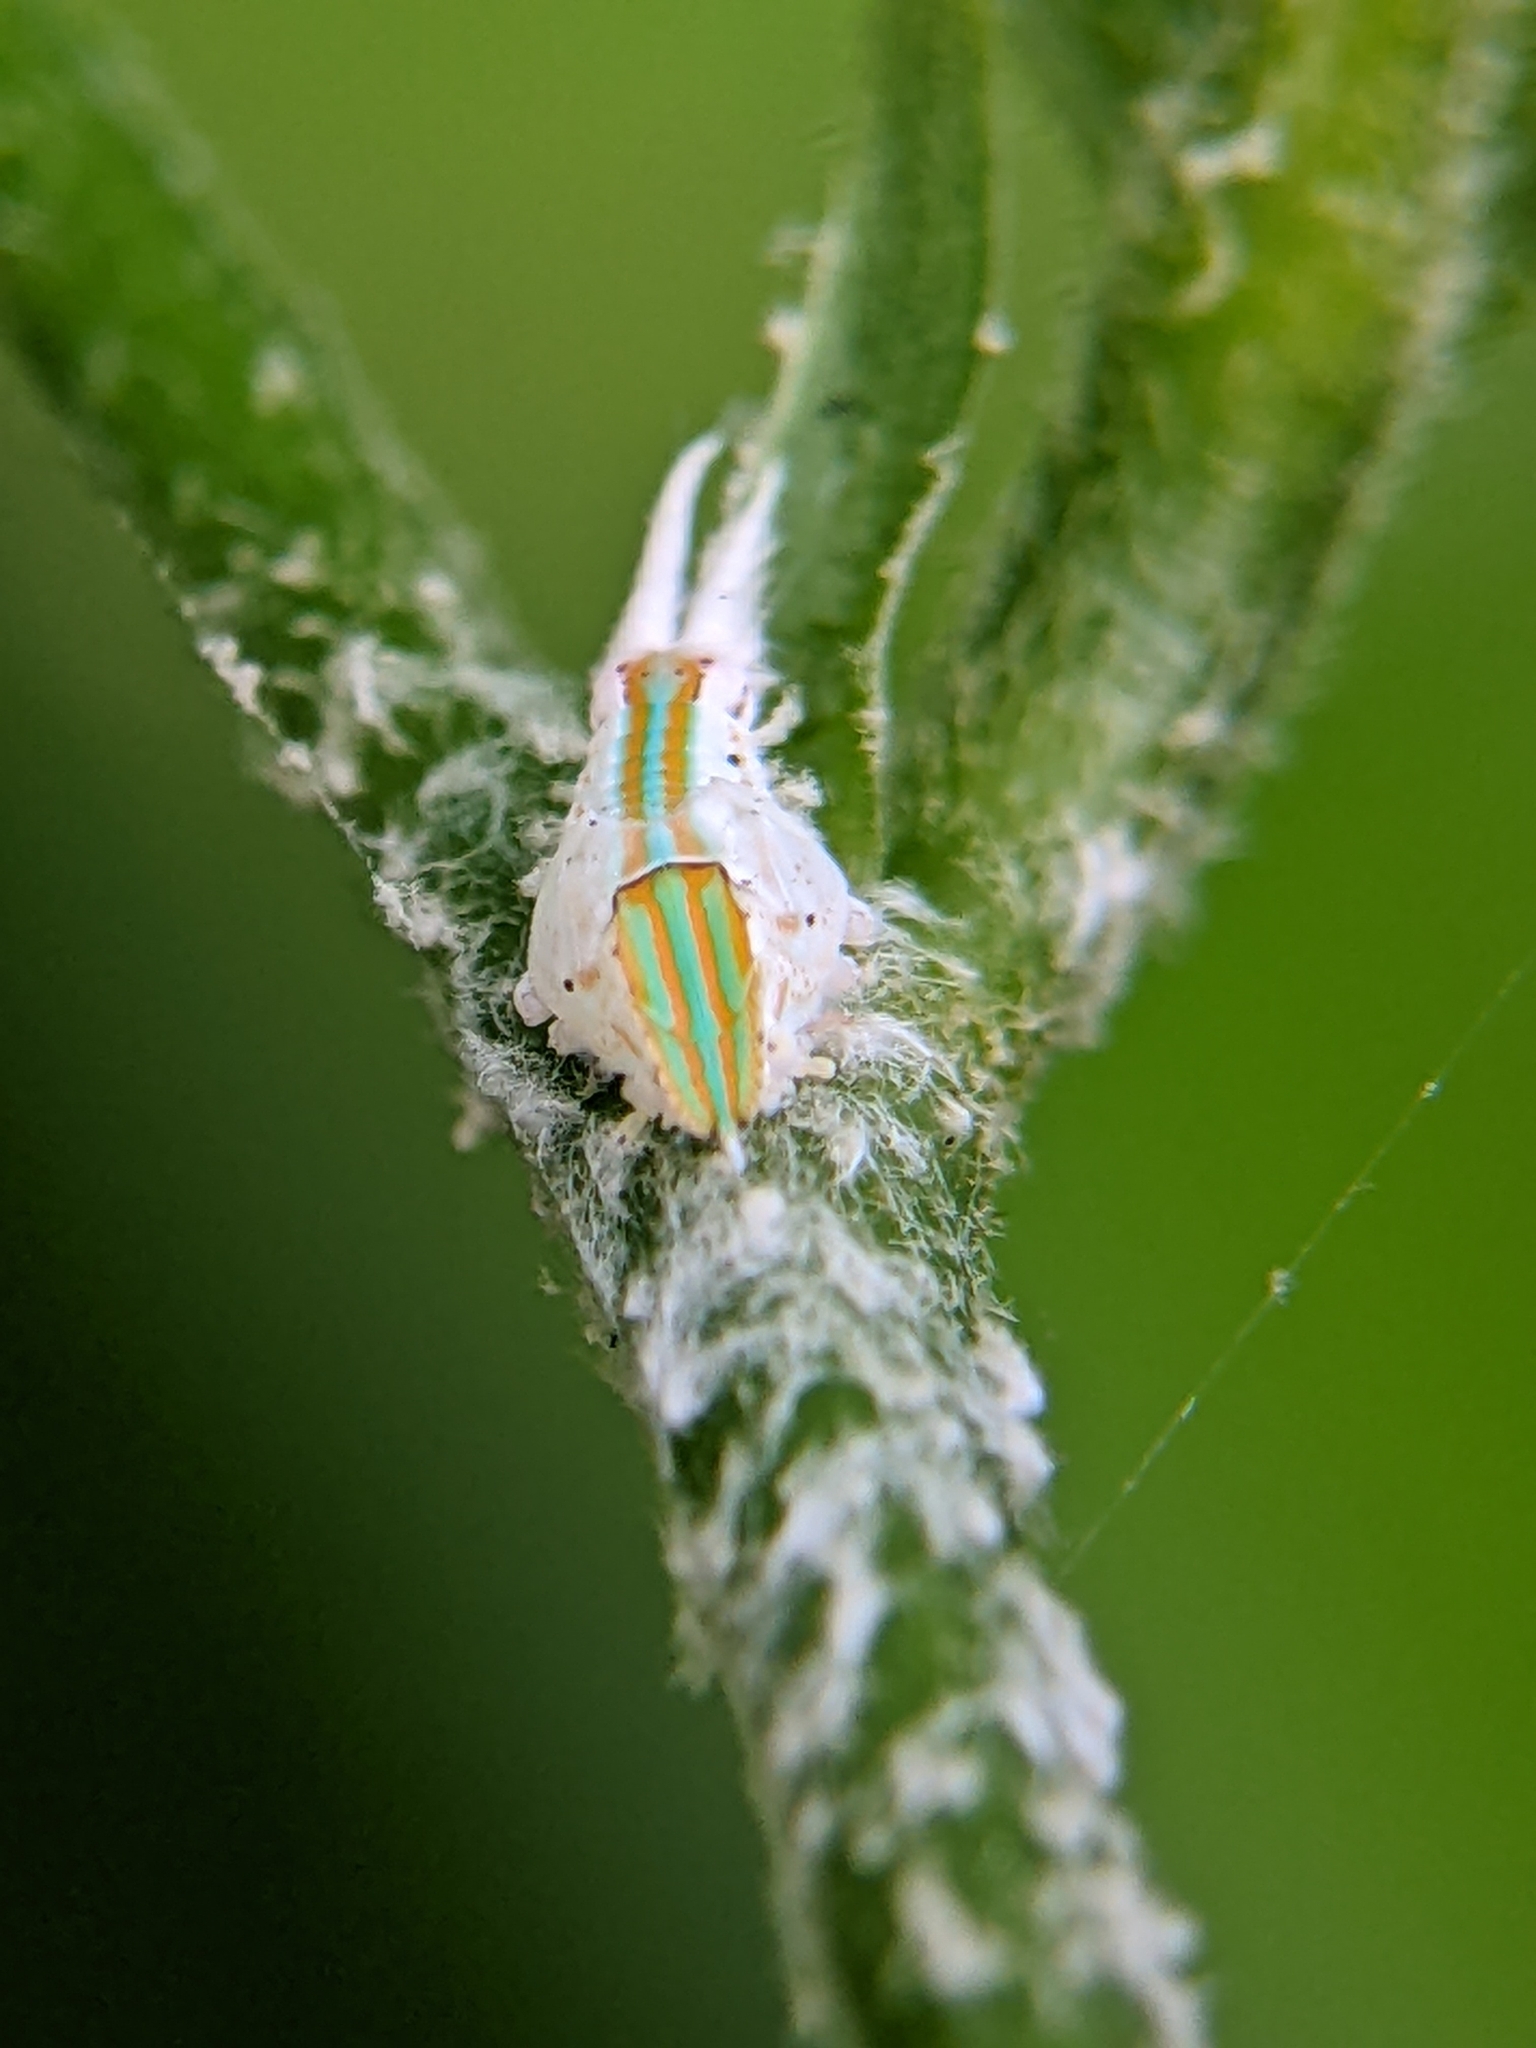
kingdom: Animalia
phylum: Arthropoda
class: Insecta
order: Hemiptera
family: Flatidae
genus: Salurnis
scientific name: Salurnis marginella
